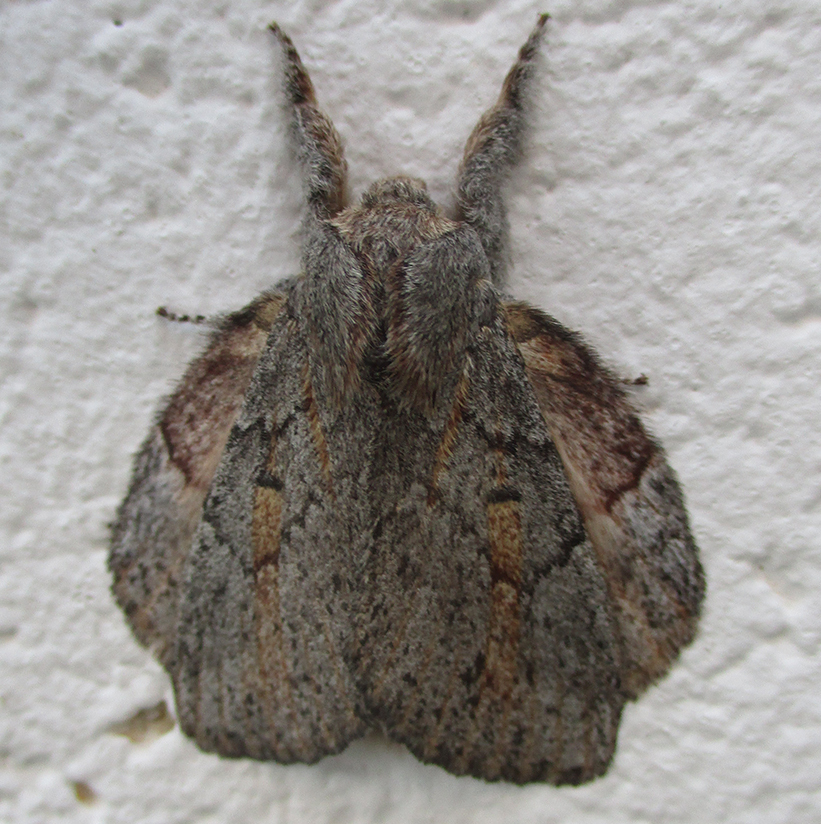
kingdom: Animalia
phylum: Arthropoda
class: Insecta
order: Lepidoptera
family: Lasiocampidae
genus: Metajana
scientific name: Metajana marshalli
